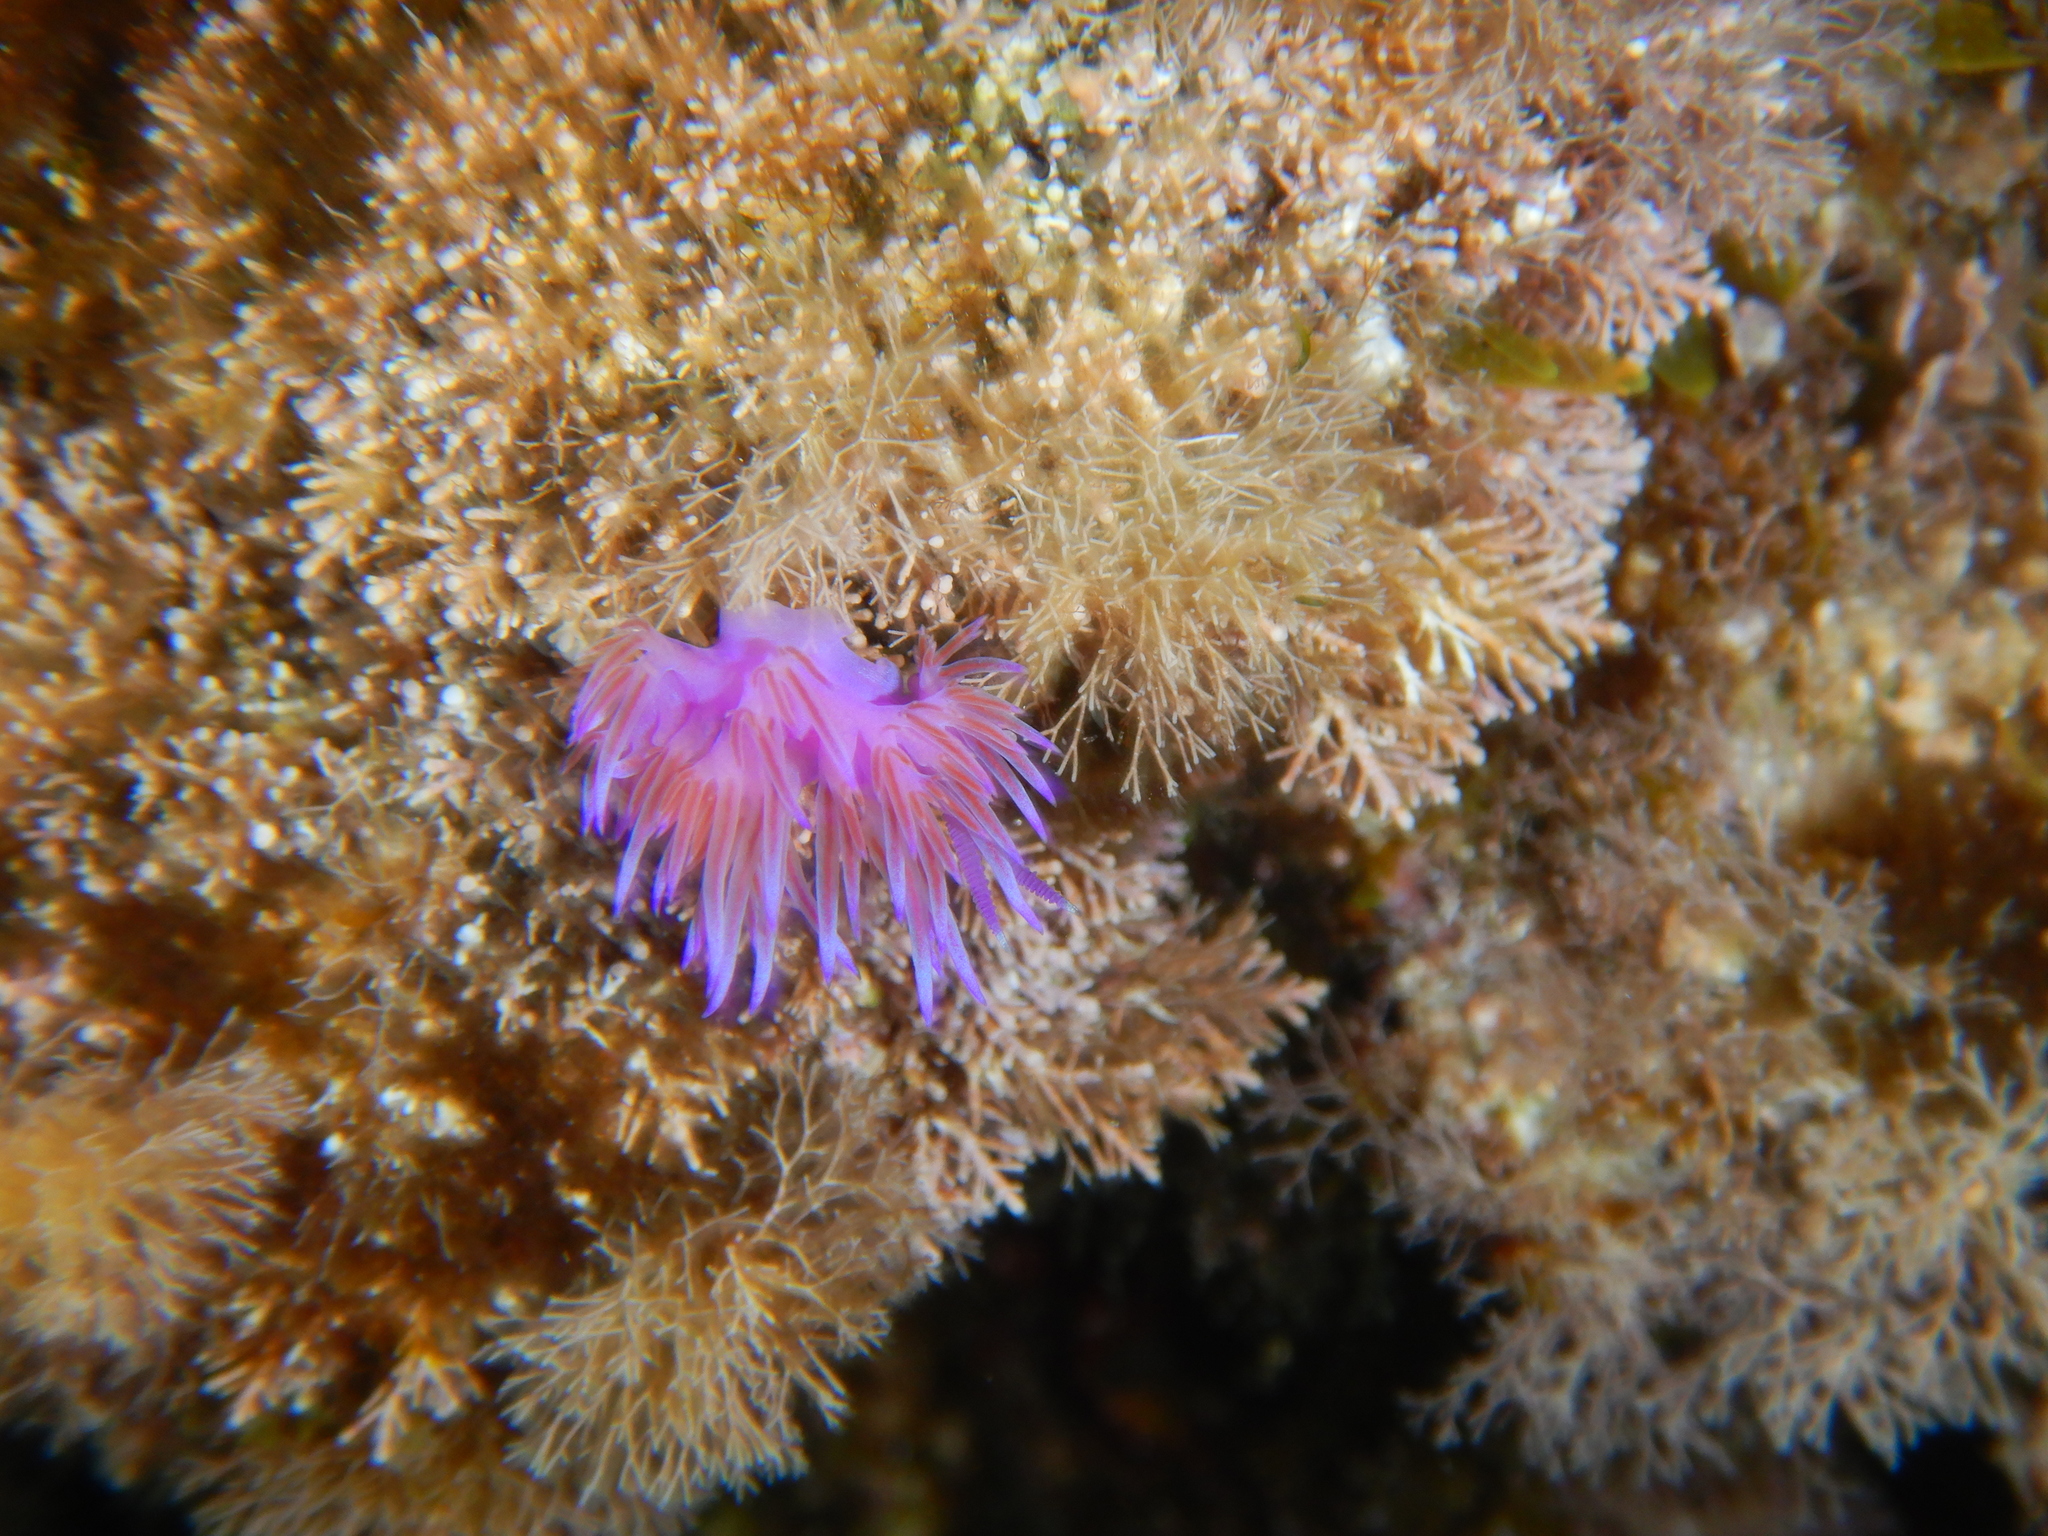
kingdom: Animalia
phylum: Mollusca
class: Gastropoda
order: Nudibranchia
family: Flabellinidae
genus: Flabellina
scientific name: Flabellina affinis
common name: Mediterranean violet aeolid
